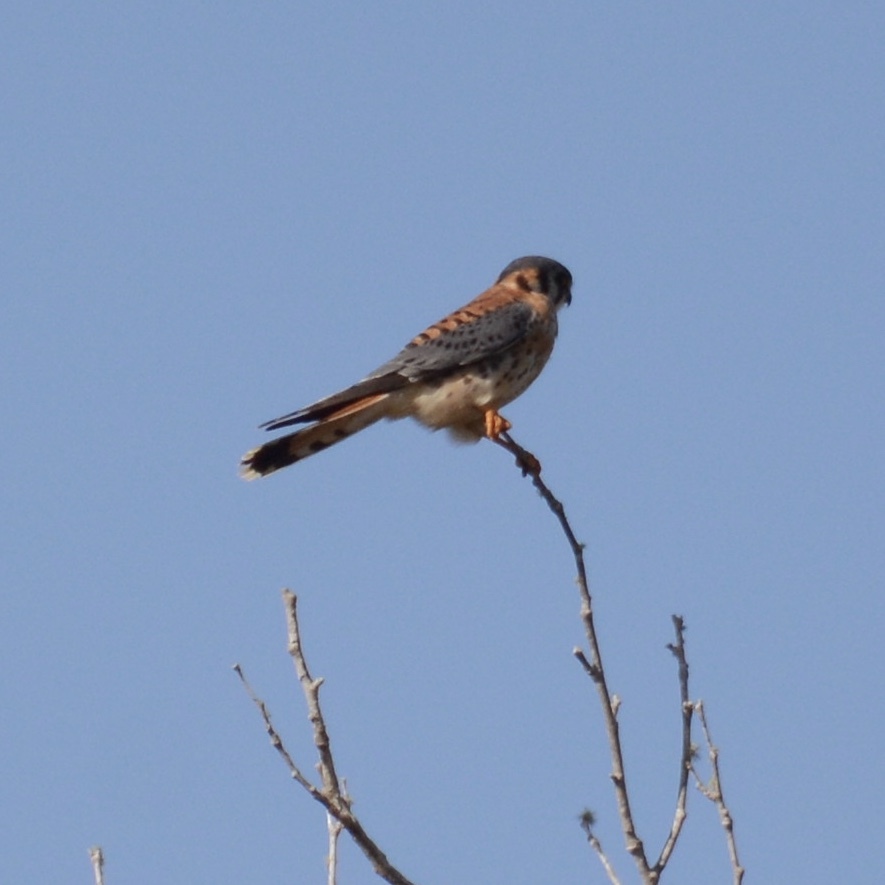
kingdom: Animalia
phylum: Chordata
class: Aves
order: Falconiformes
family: Falconidae
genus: Falco
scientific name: Falco sparverius
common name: American kestrel
